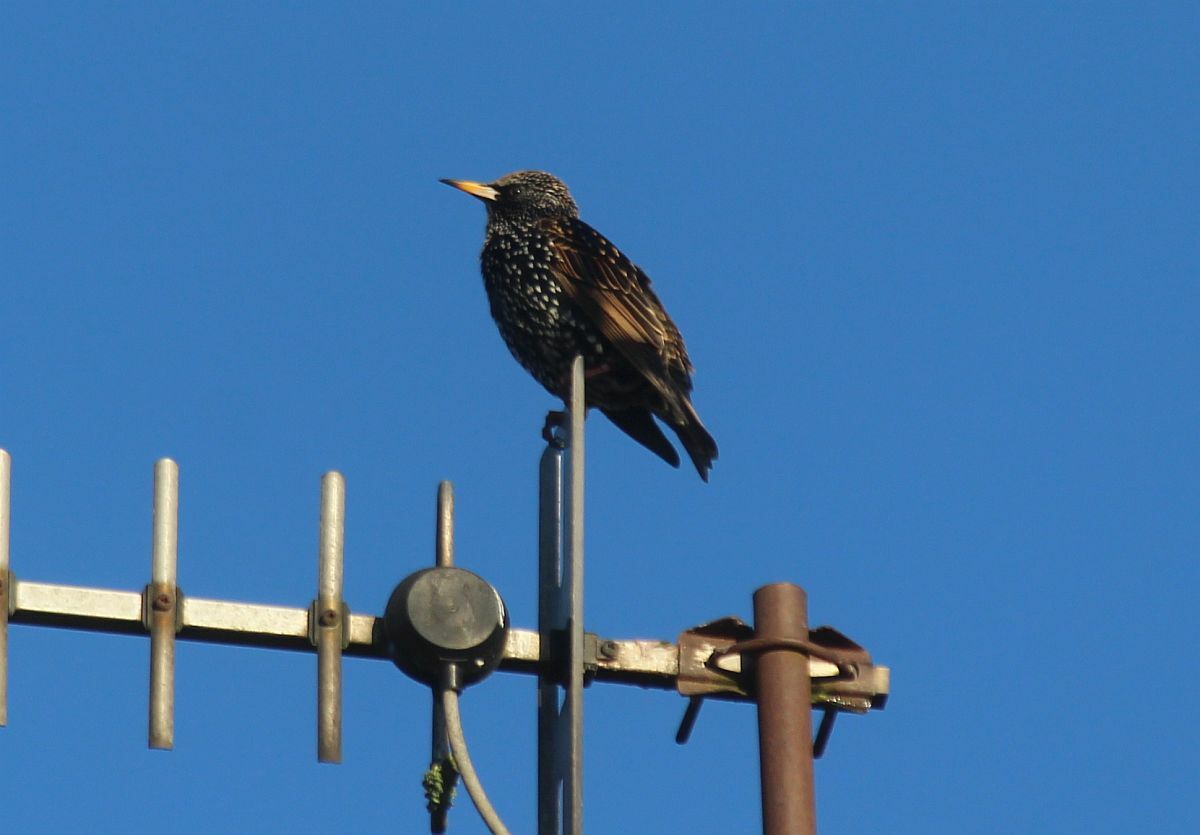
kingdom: Animalia
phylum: Chordata
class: Aves
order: Passeriformes
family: Sturnidae
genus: Sturnus
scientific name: Sturnus vulgaris
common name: Common starling
